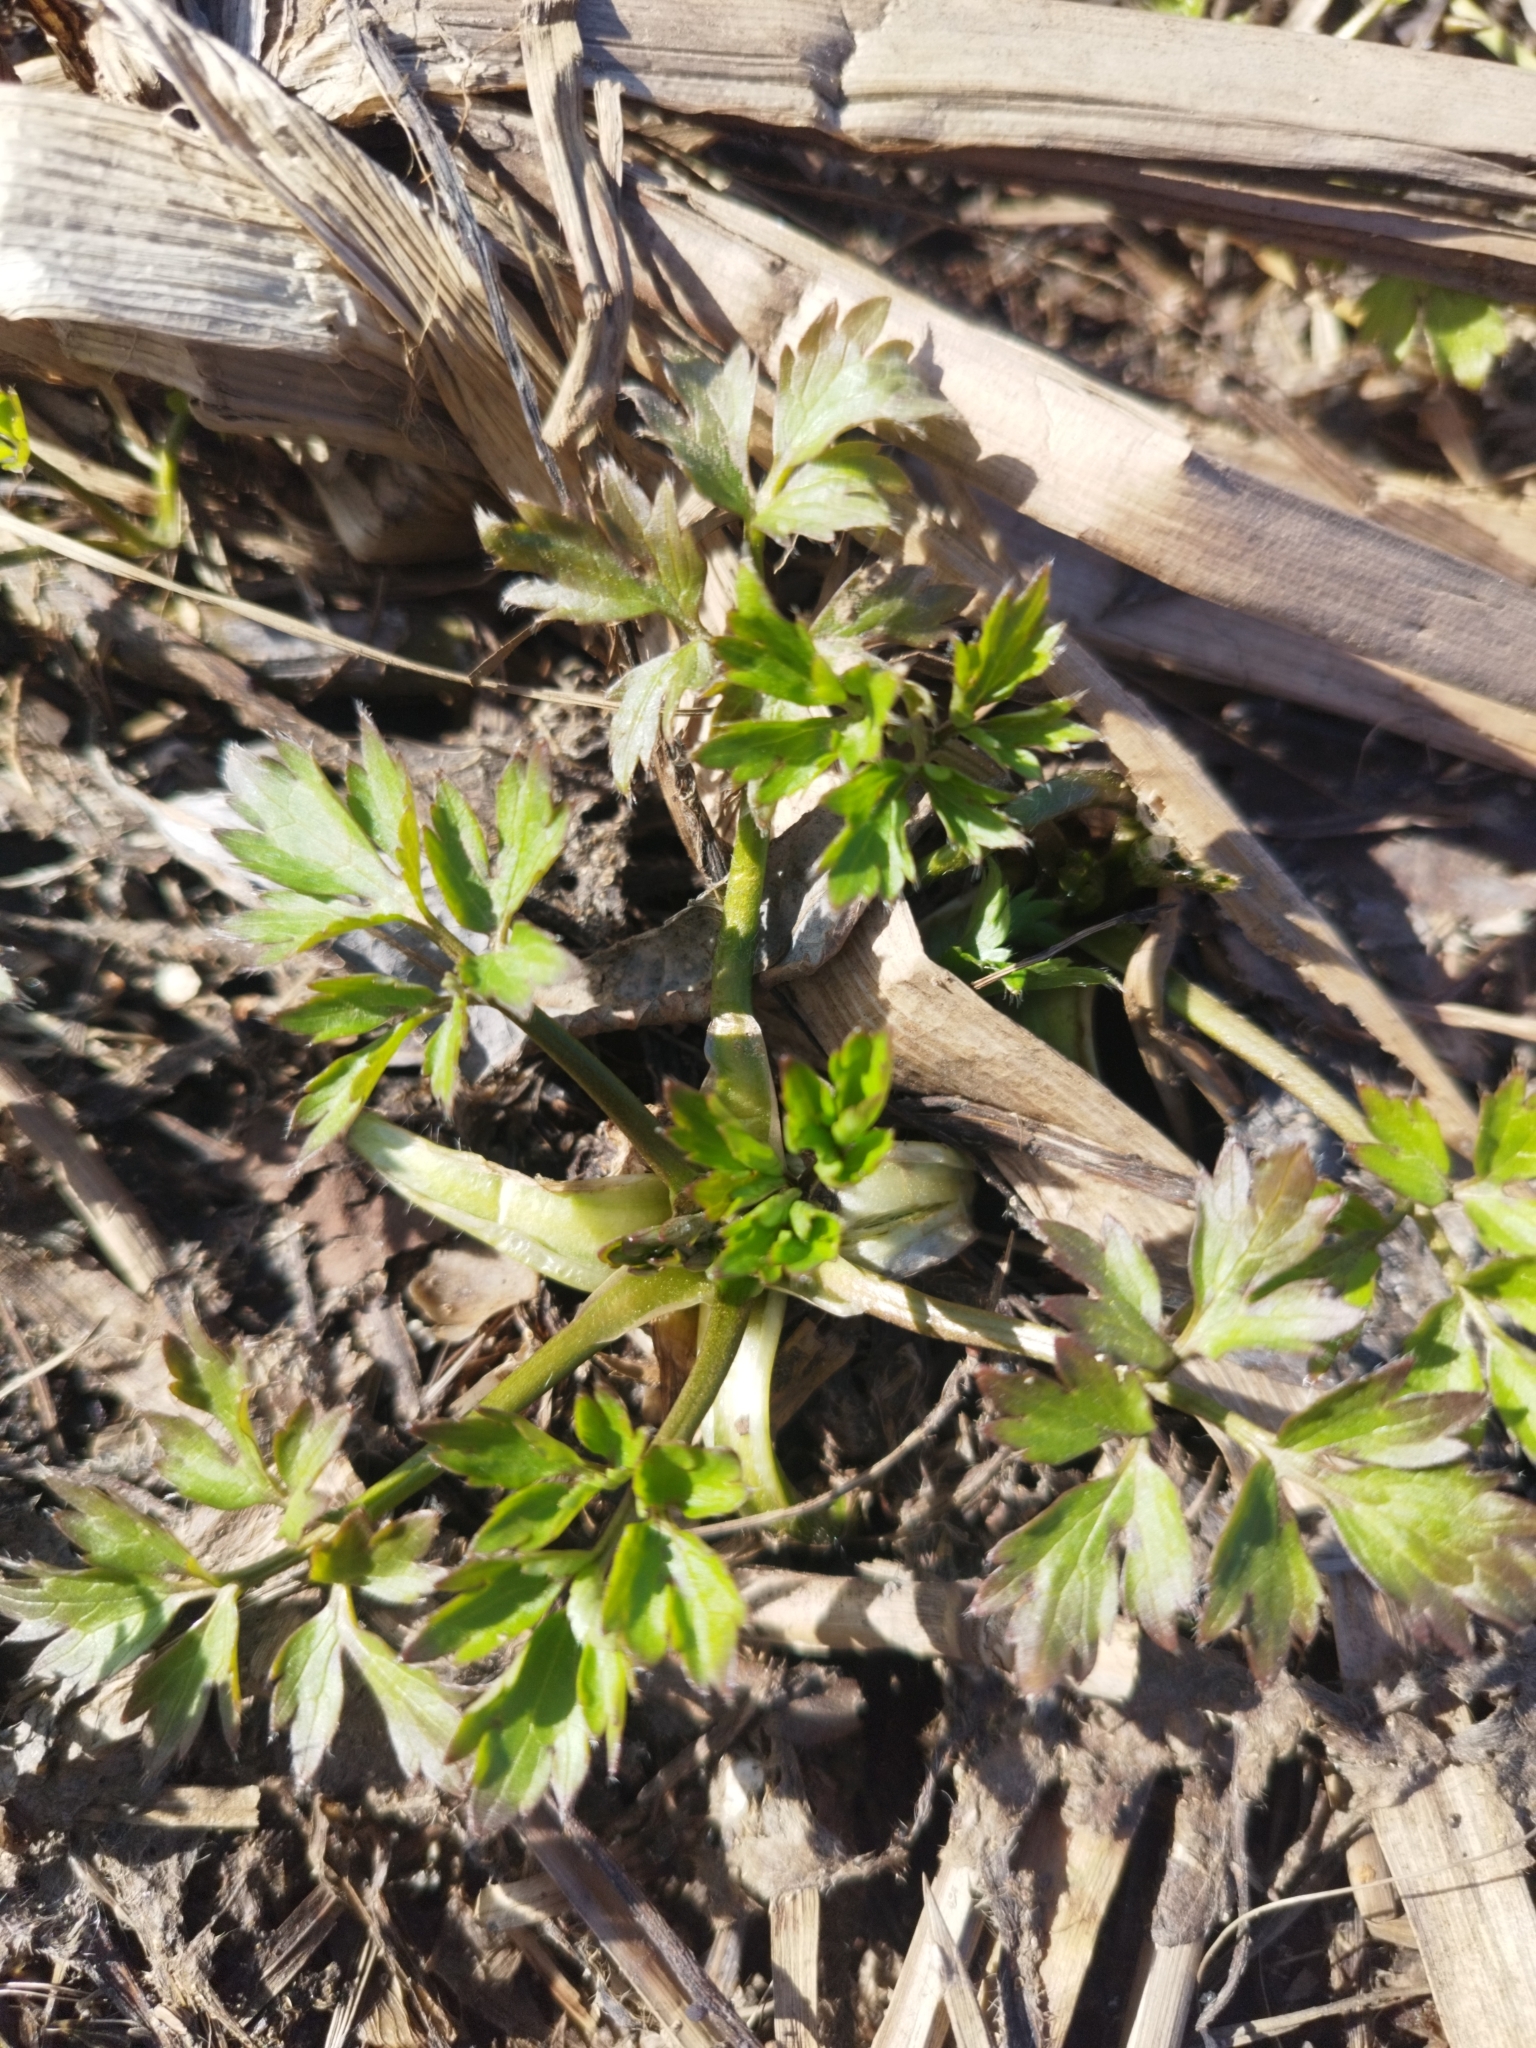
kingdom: Plantae
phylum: Tracheophyta
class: Magnoliopsida
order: Ranunculales
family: Ranunculaceae
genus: Ranunculus
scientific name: Ranunculus repens
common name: Creeping buttercup
